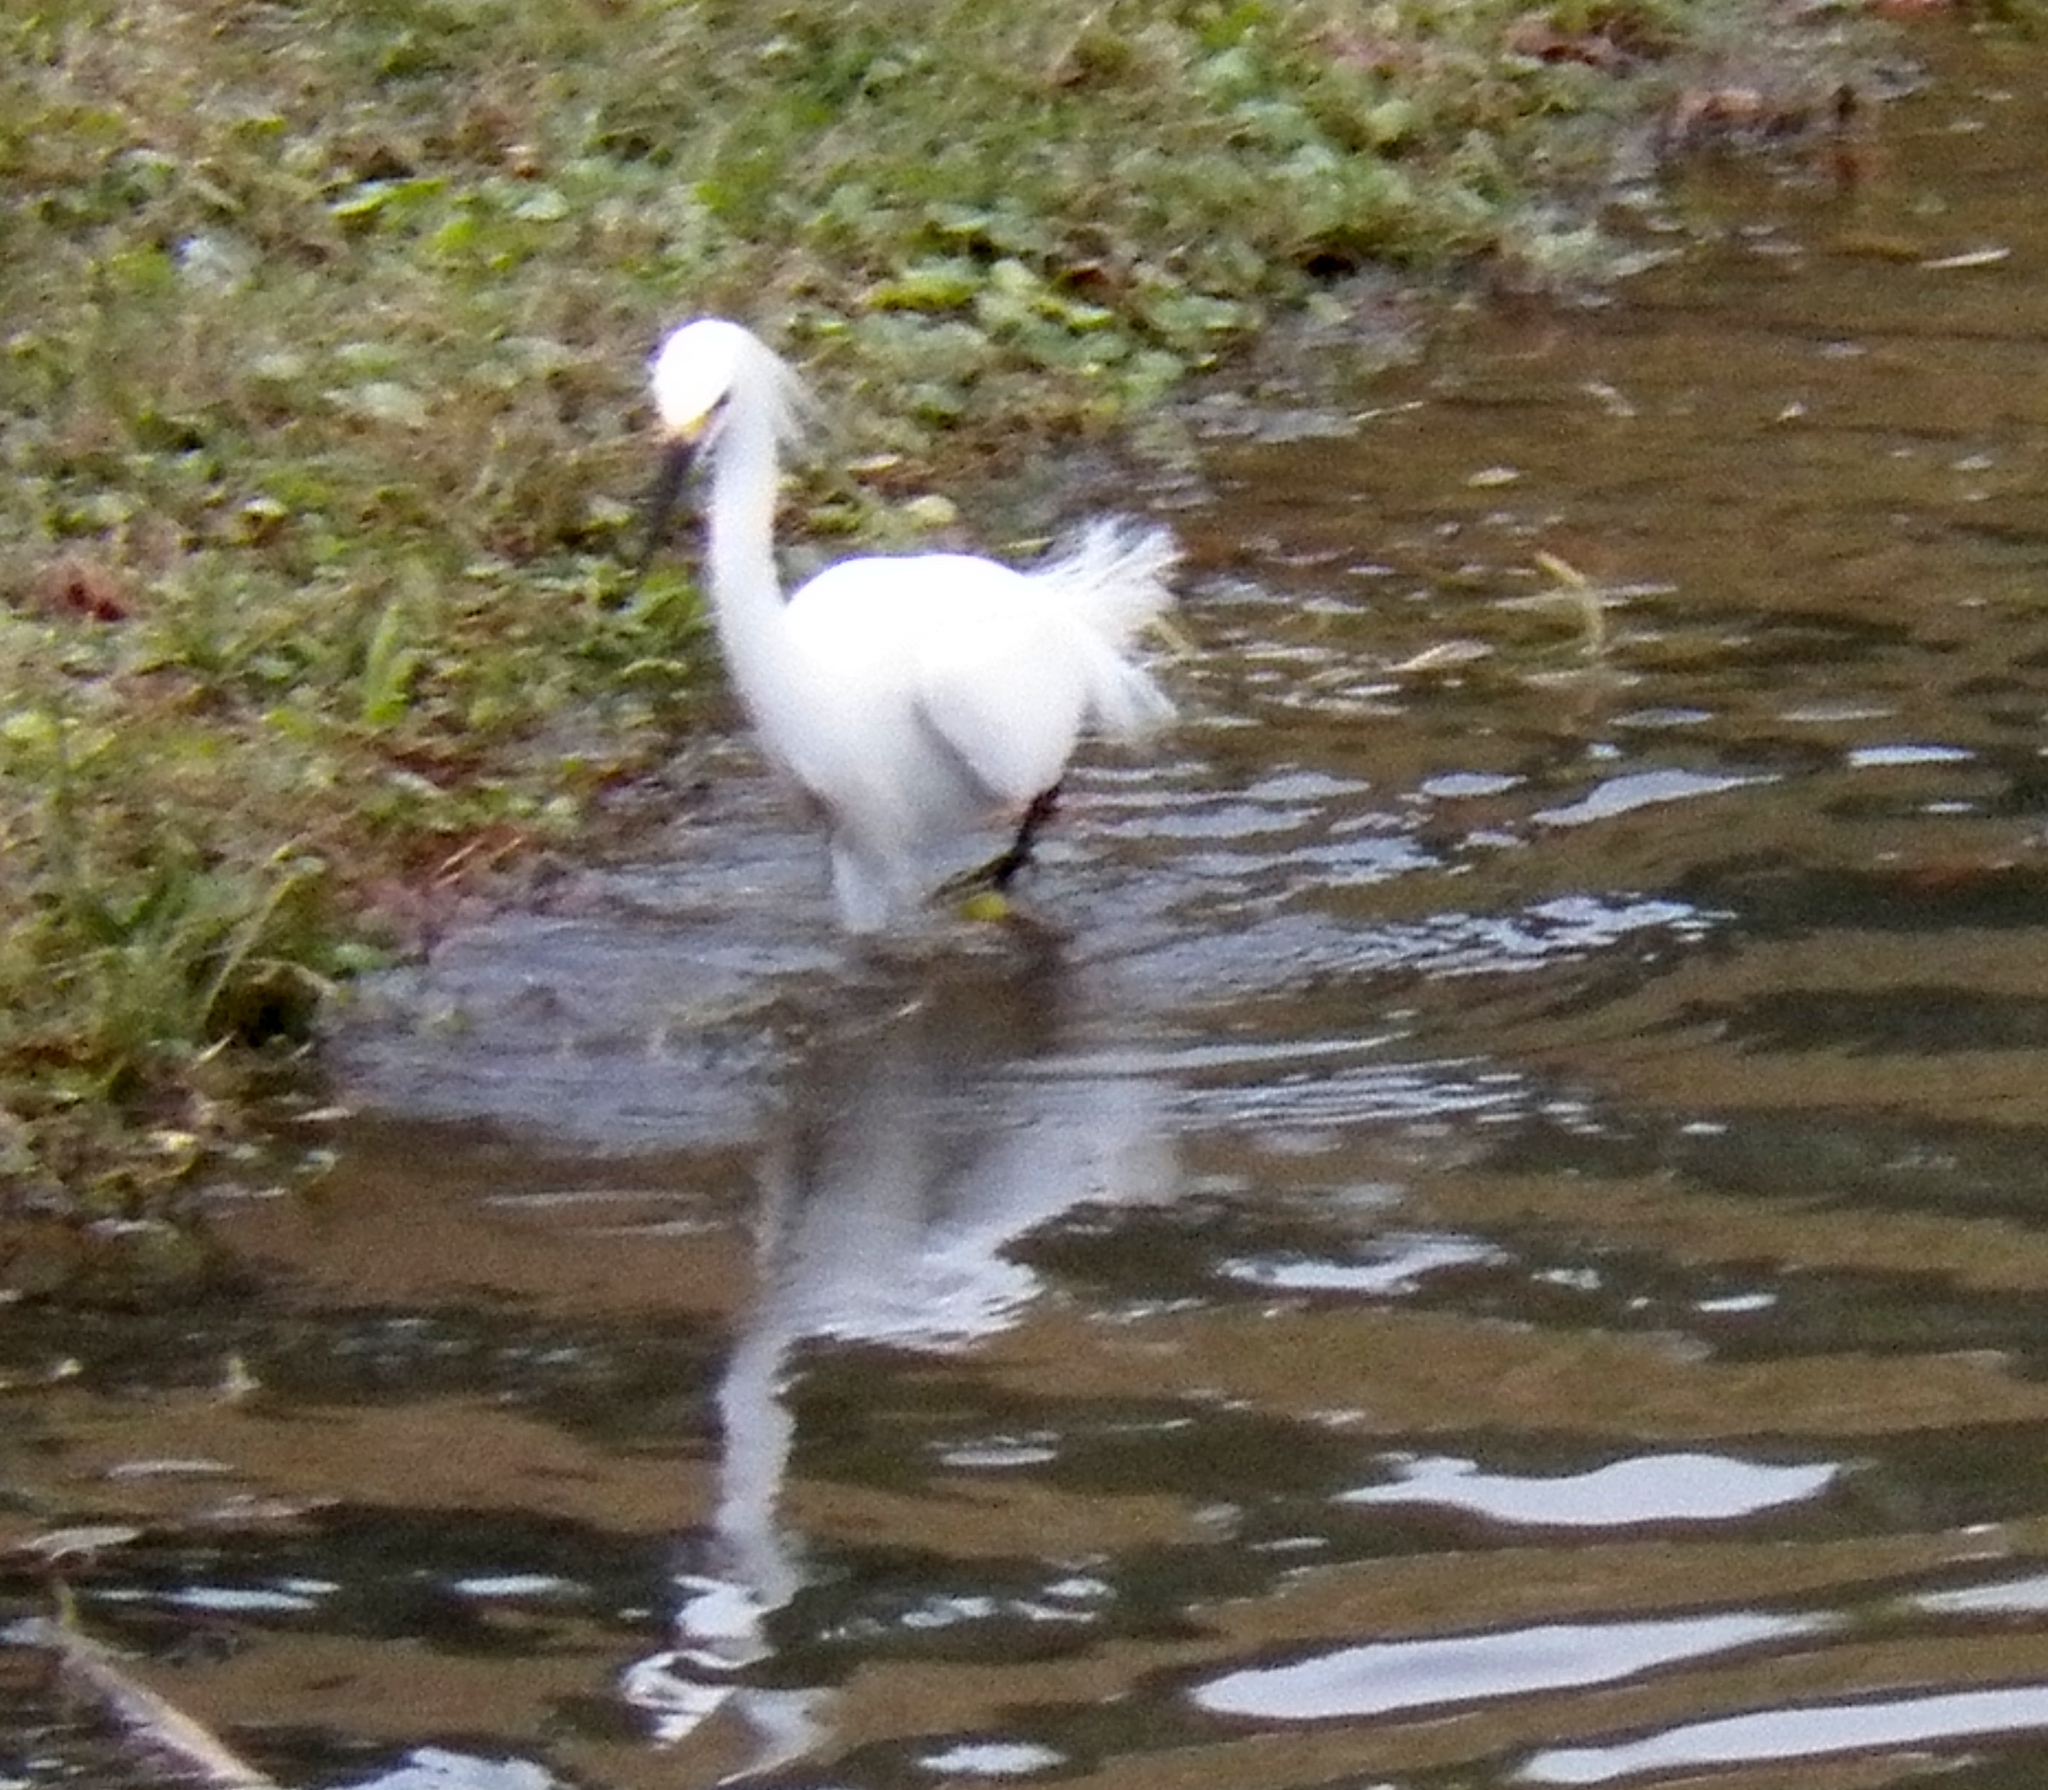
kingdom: Animalia
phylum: Chordata
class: Aves
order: Pelecaniformes
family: Ardeidae
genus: Egretta
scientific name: Egretta thula
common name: Snowy egret
